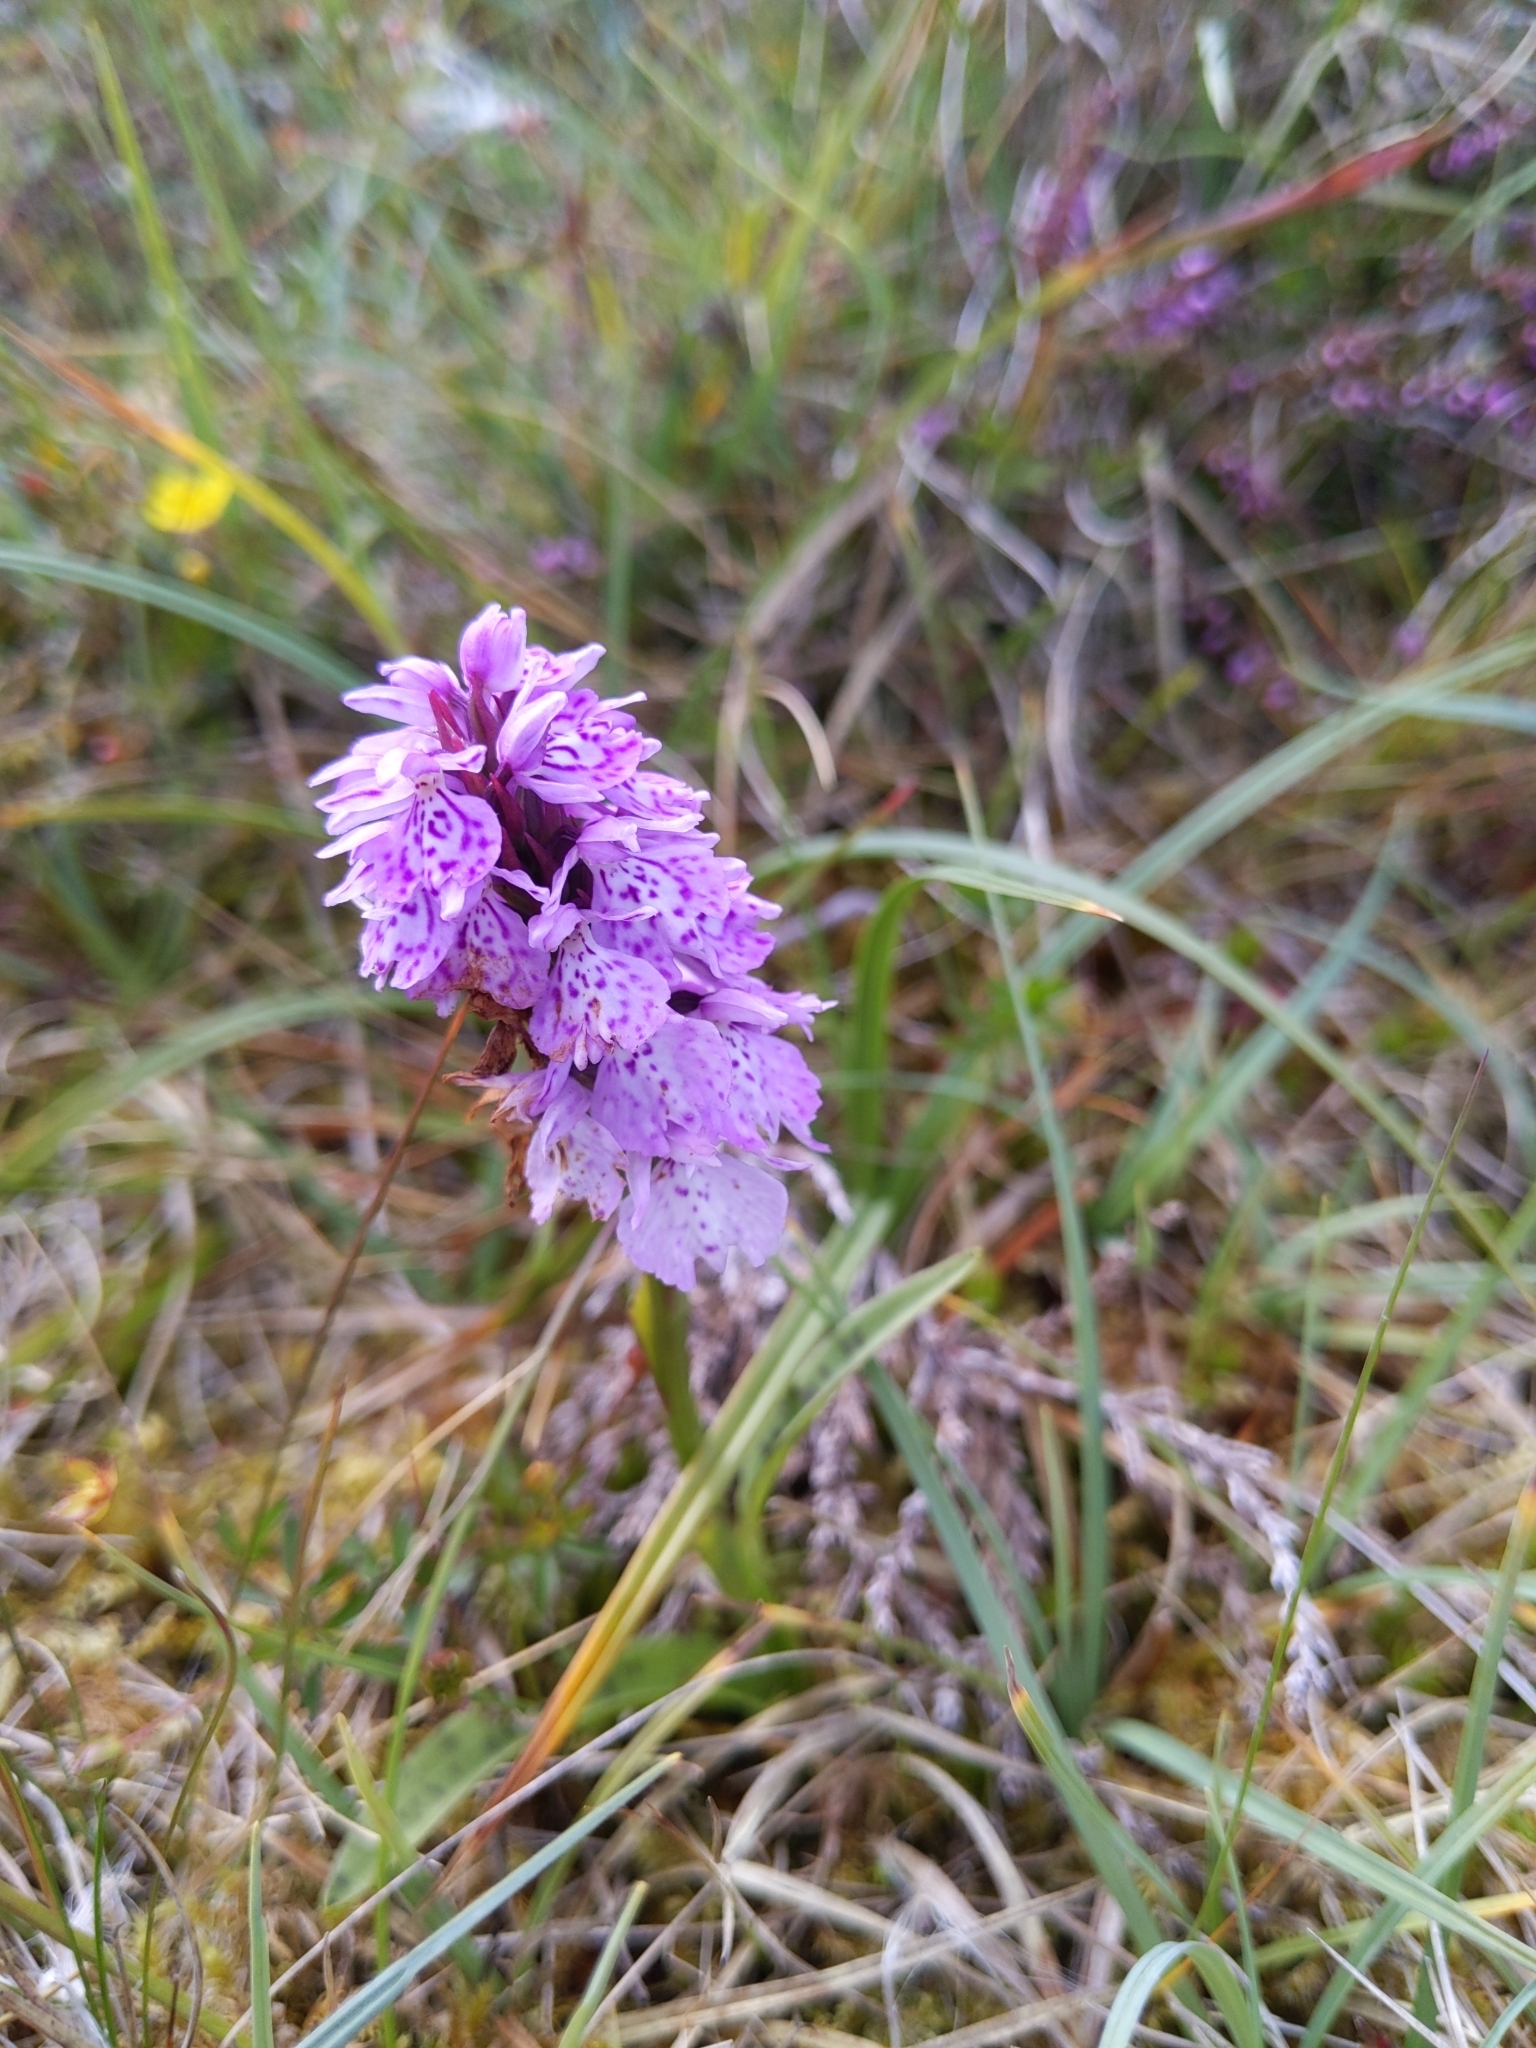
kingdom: Plantae
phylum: Tracheophyta
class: Liliopsida
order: Asparagales
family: Orchidaceae
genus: Dactylorhiza
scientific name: Dactylorhiza maculata
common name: Heath spotted-orchid
